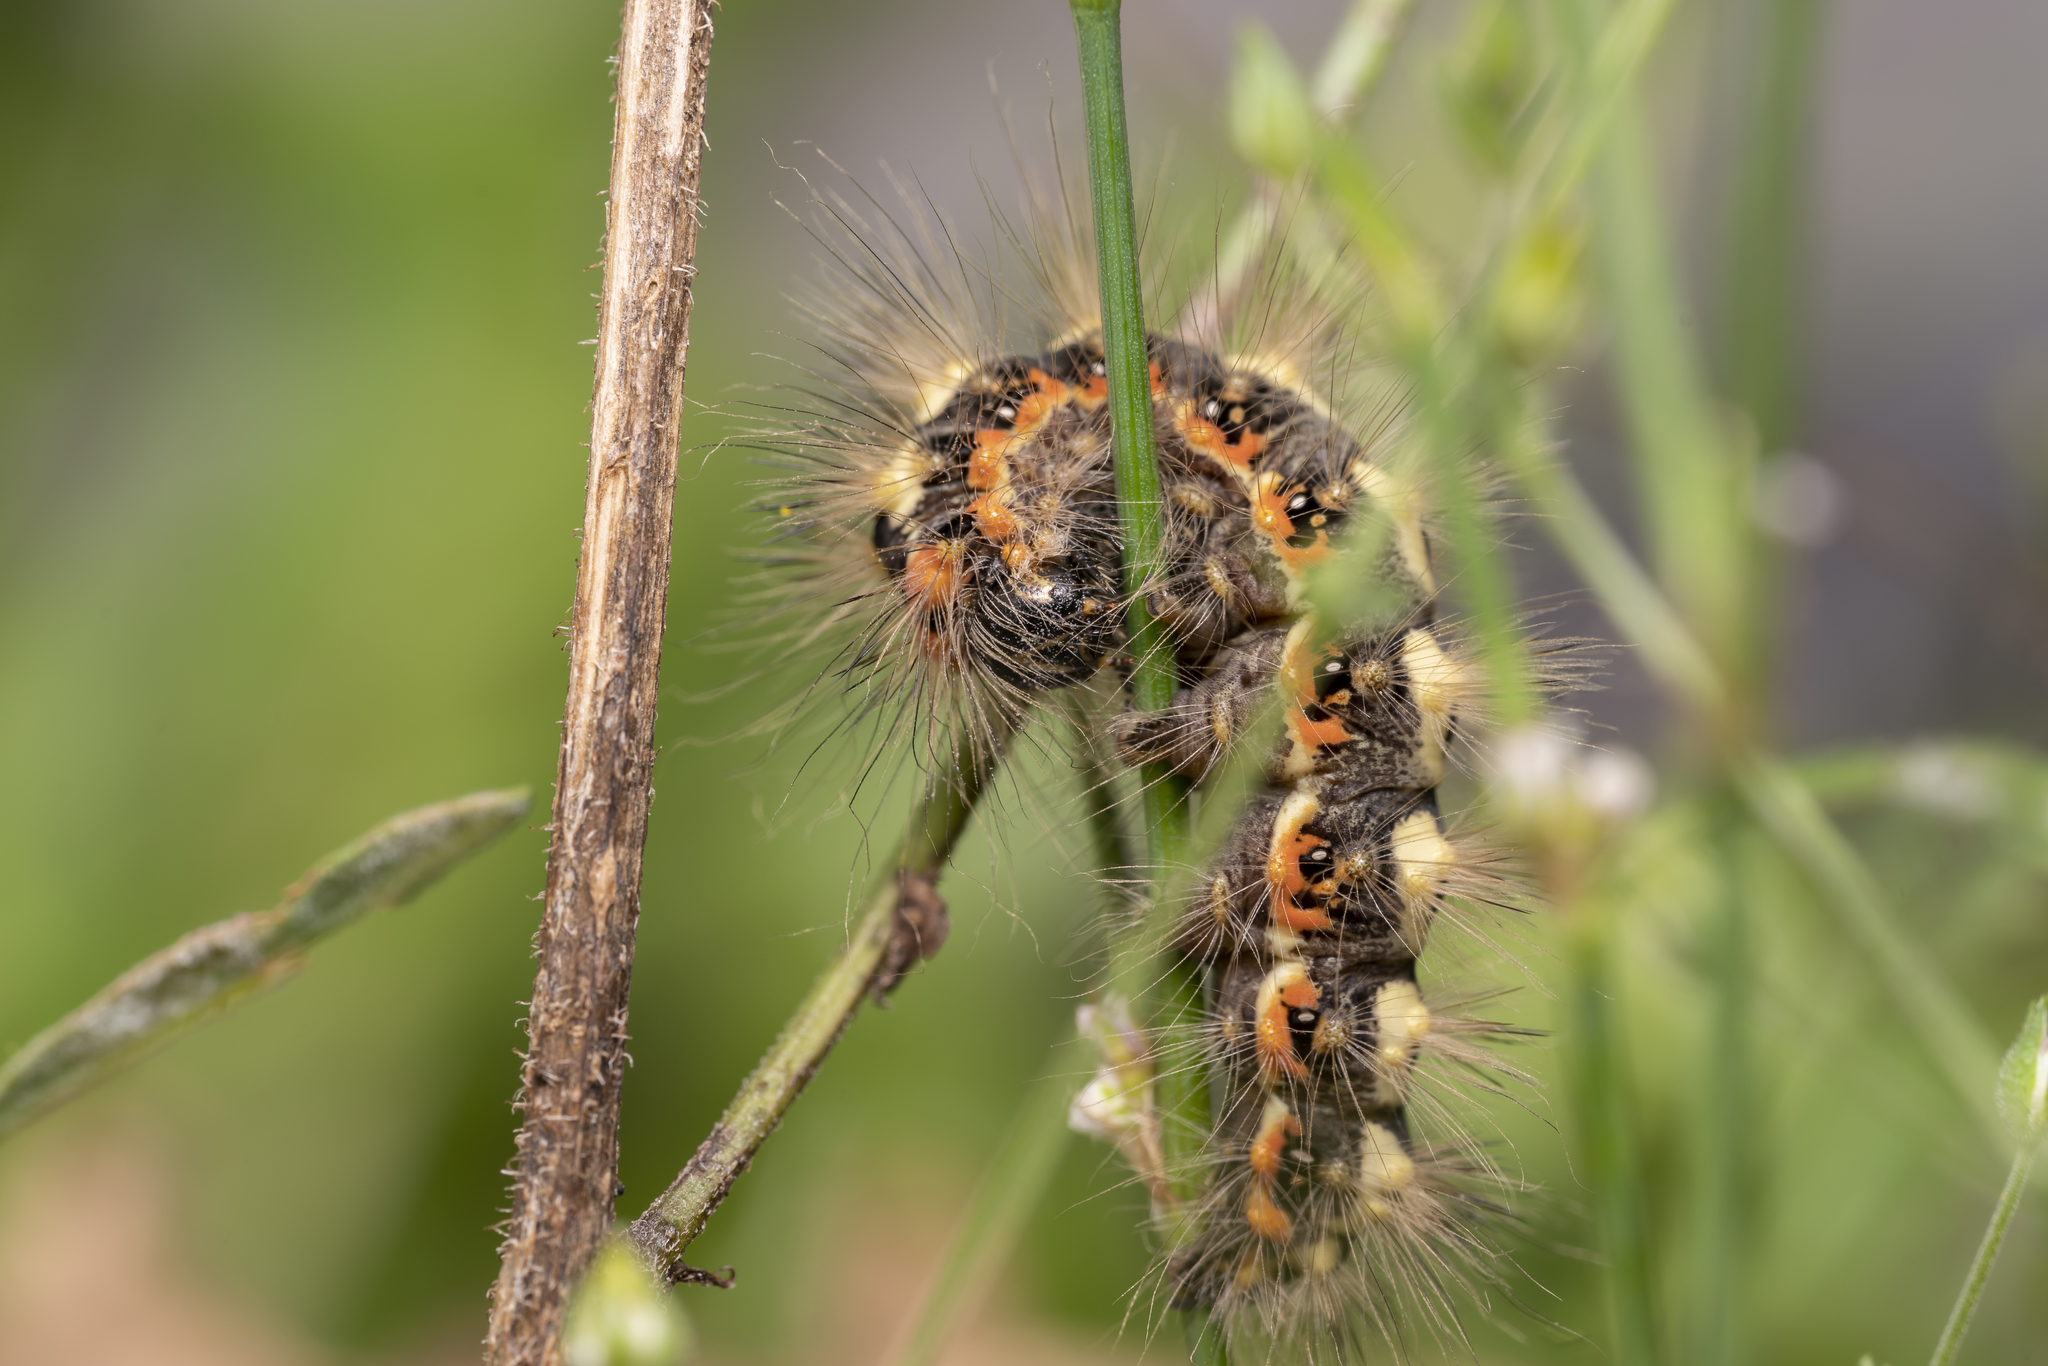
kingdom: Animalia
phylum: Arthropoda
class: Insecta
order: Lepidoptera
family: Noctuidae
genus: Acronicta
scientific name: Acronicta euphorbiae
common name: Sweet gale moth
